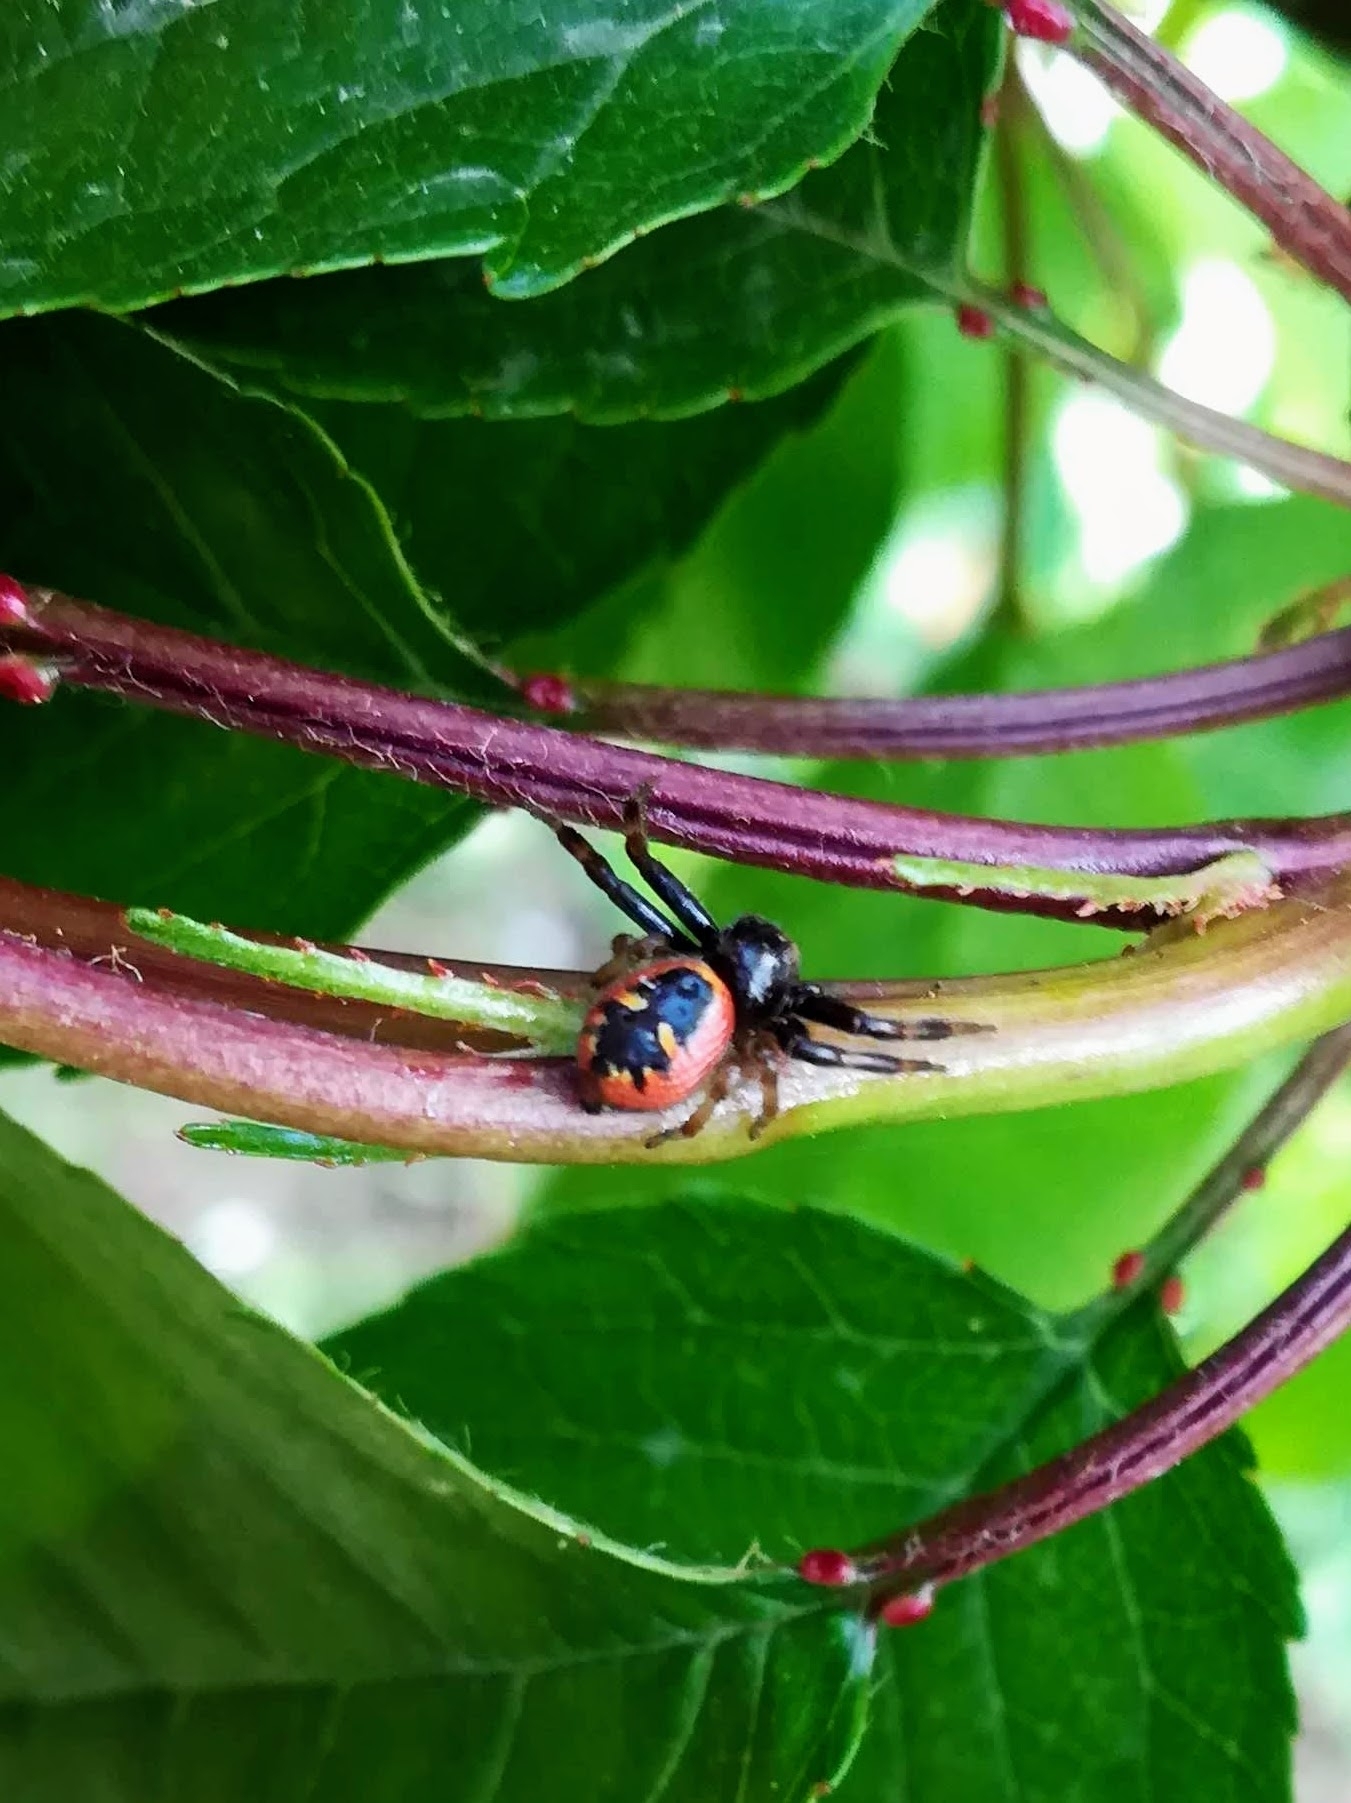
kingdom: Animalia
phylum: Arthropoda
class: Arachnida
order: Araneae
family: Thomisidae
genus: Synema
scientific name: Synema globosum
